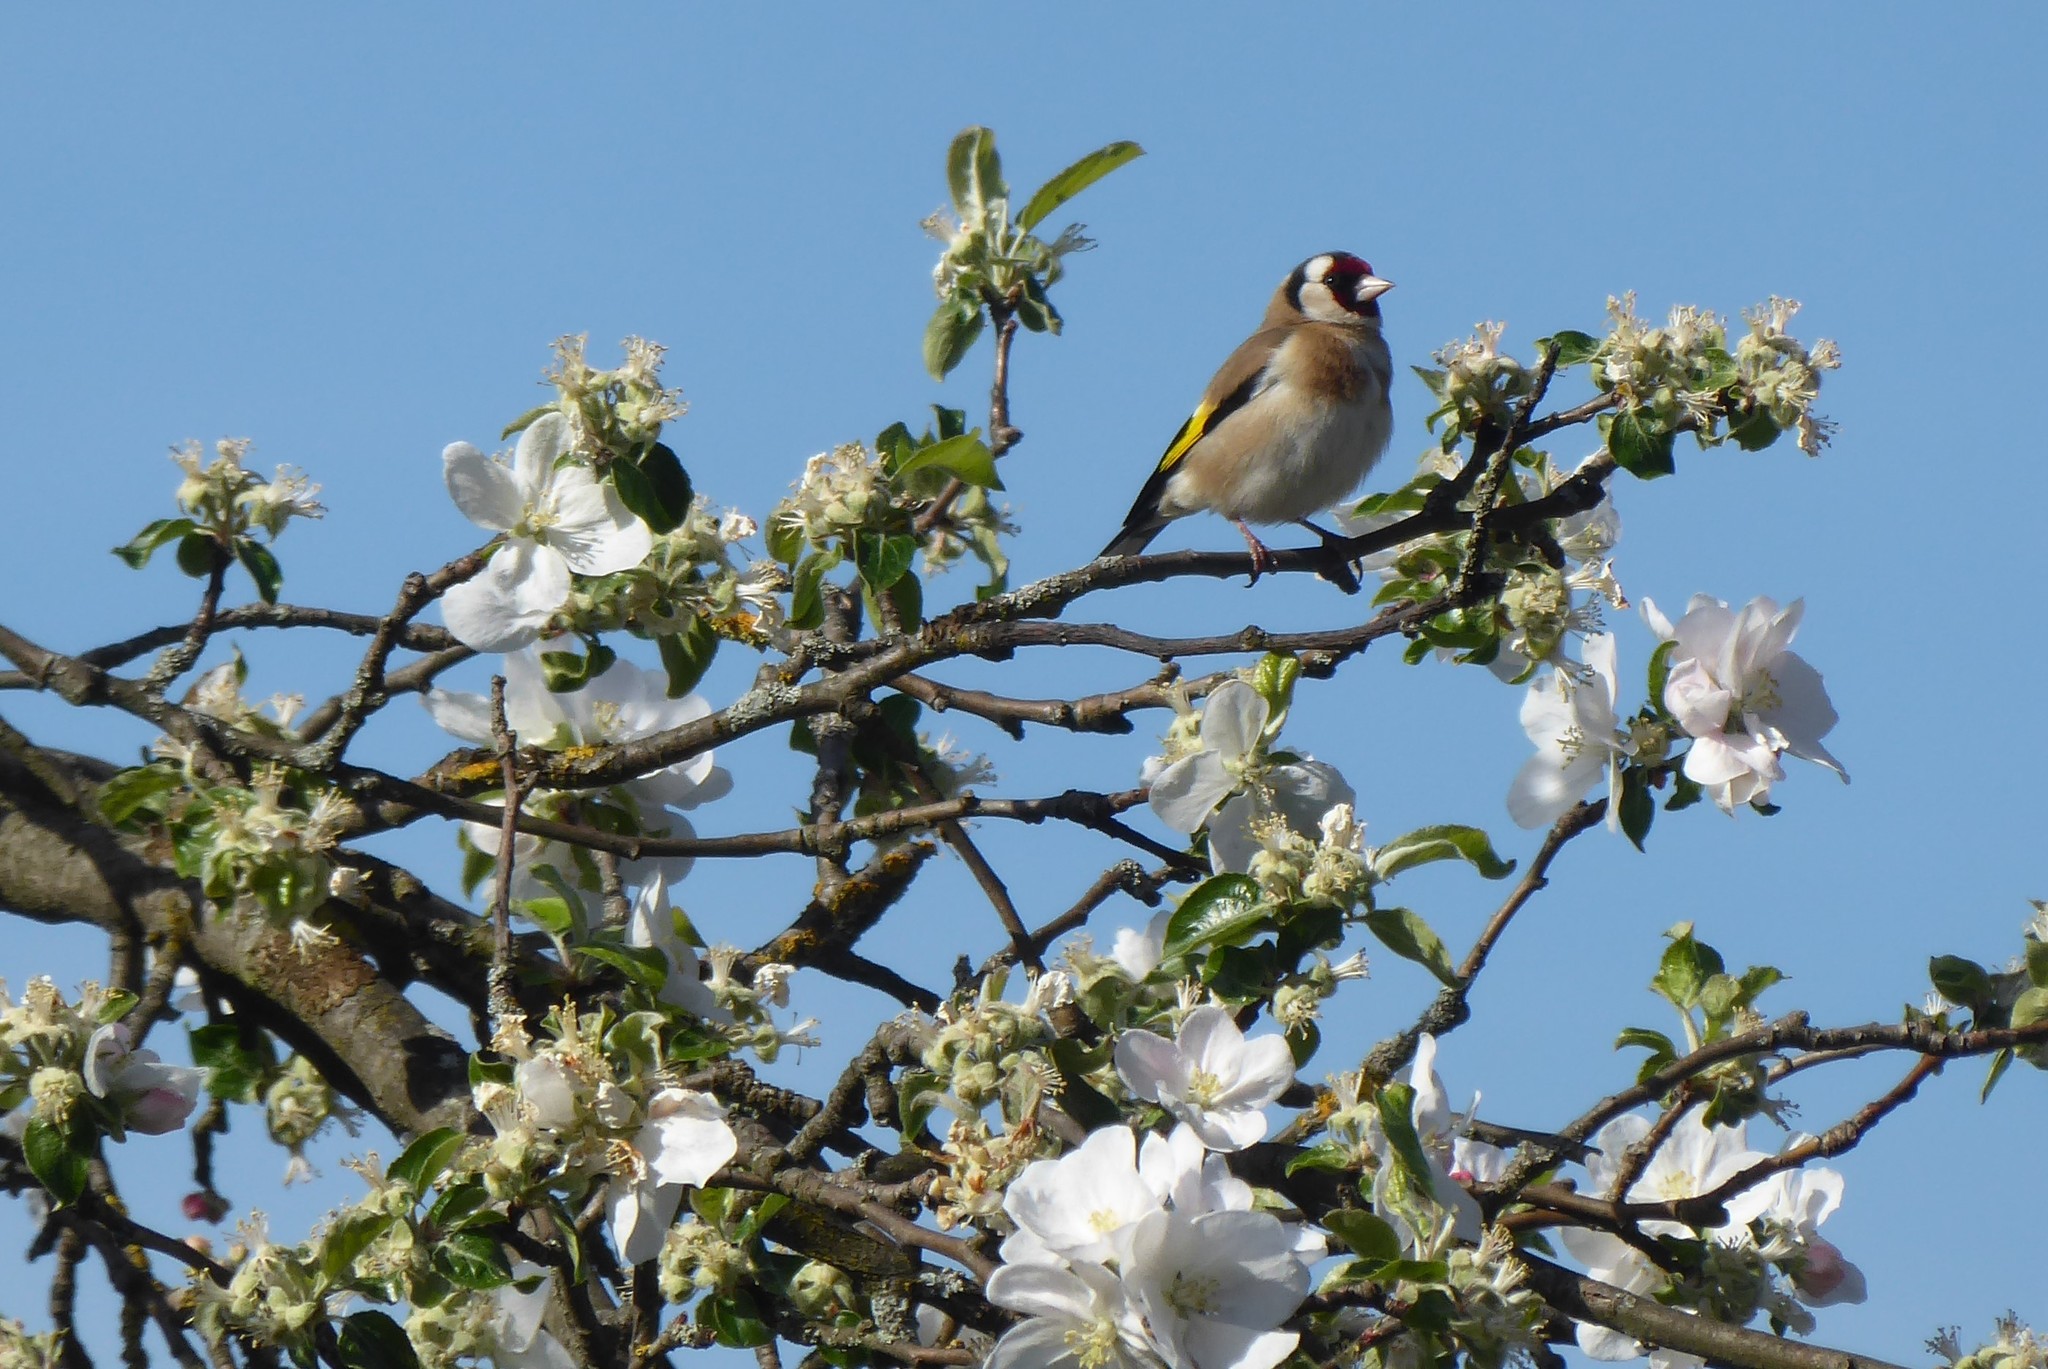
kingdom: Animalia
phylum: Chordata
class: Aves
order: Passeriformes
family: Fringillidae
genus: Carduelis
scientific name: Carduelis carduelis
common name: European goldfinch
